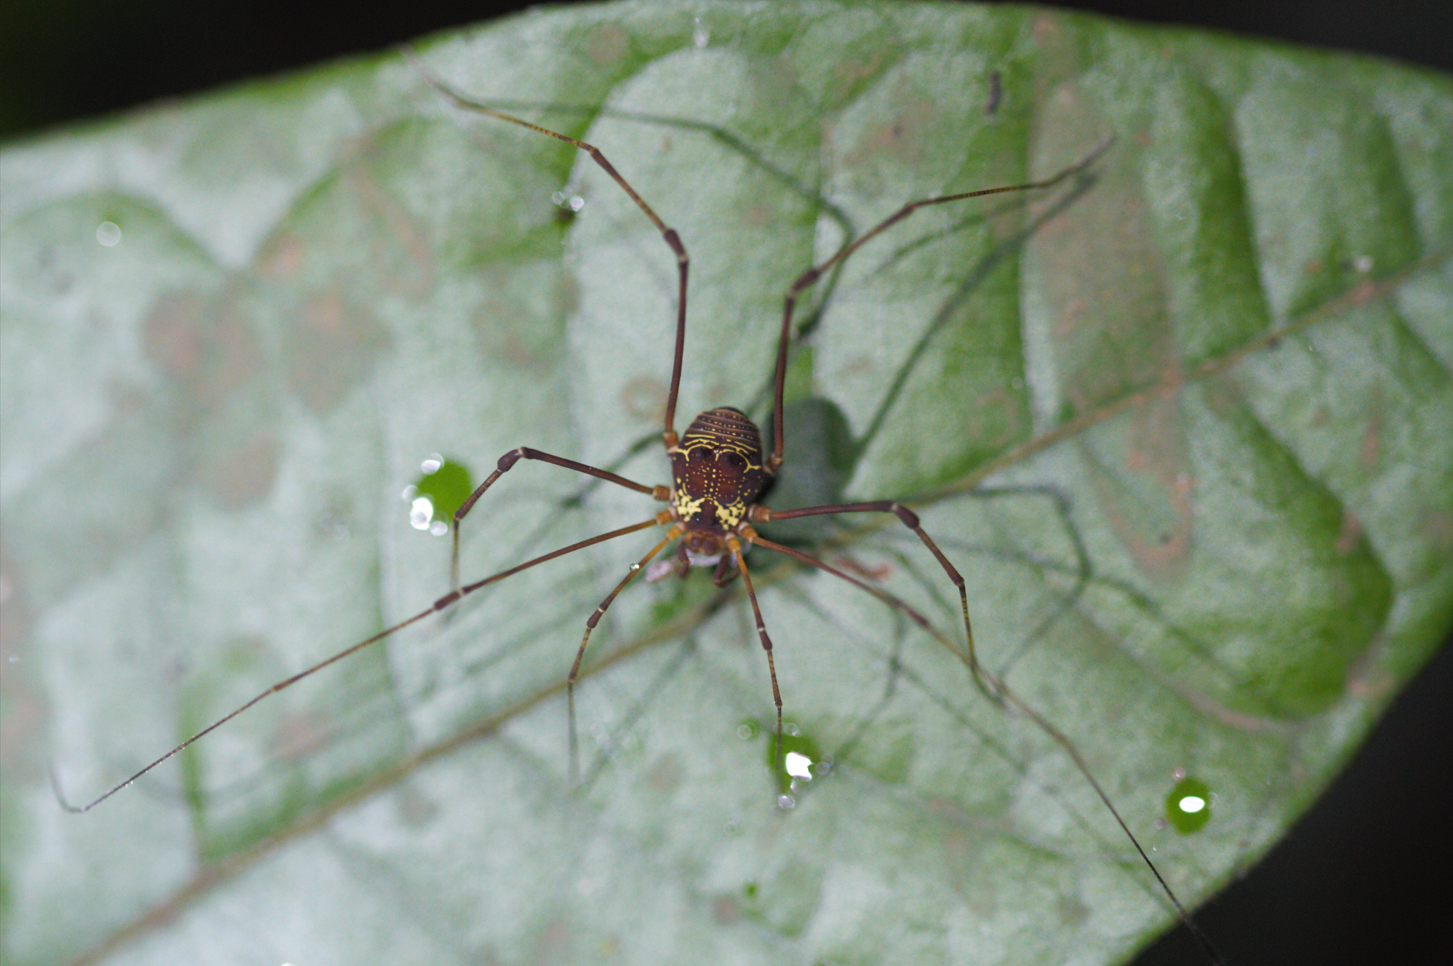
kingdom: Animalia
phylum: Arthropoda
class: Arachnida
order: Opiliones
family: Cosmetidae
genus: Cynorta
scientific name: Cynorta sigillata
